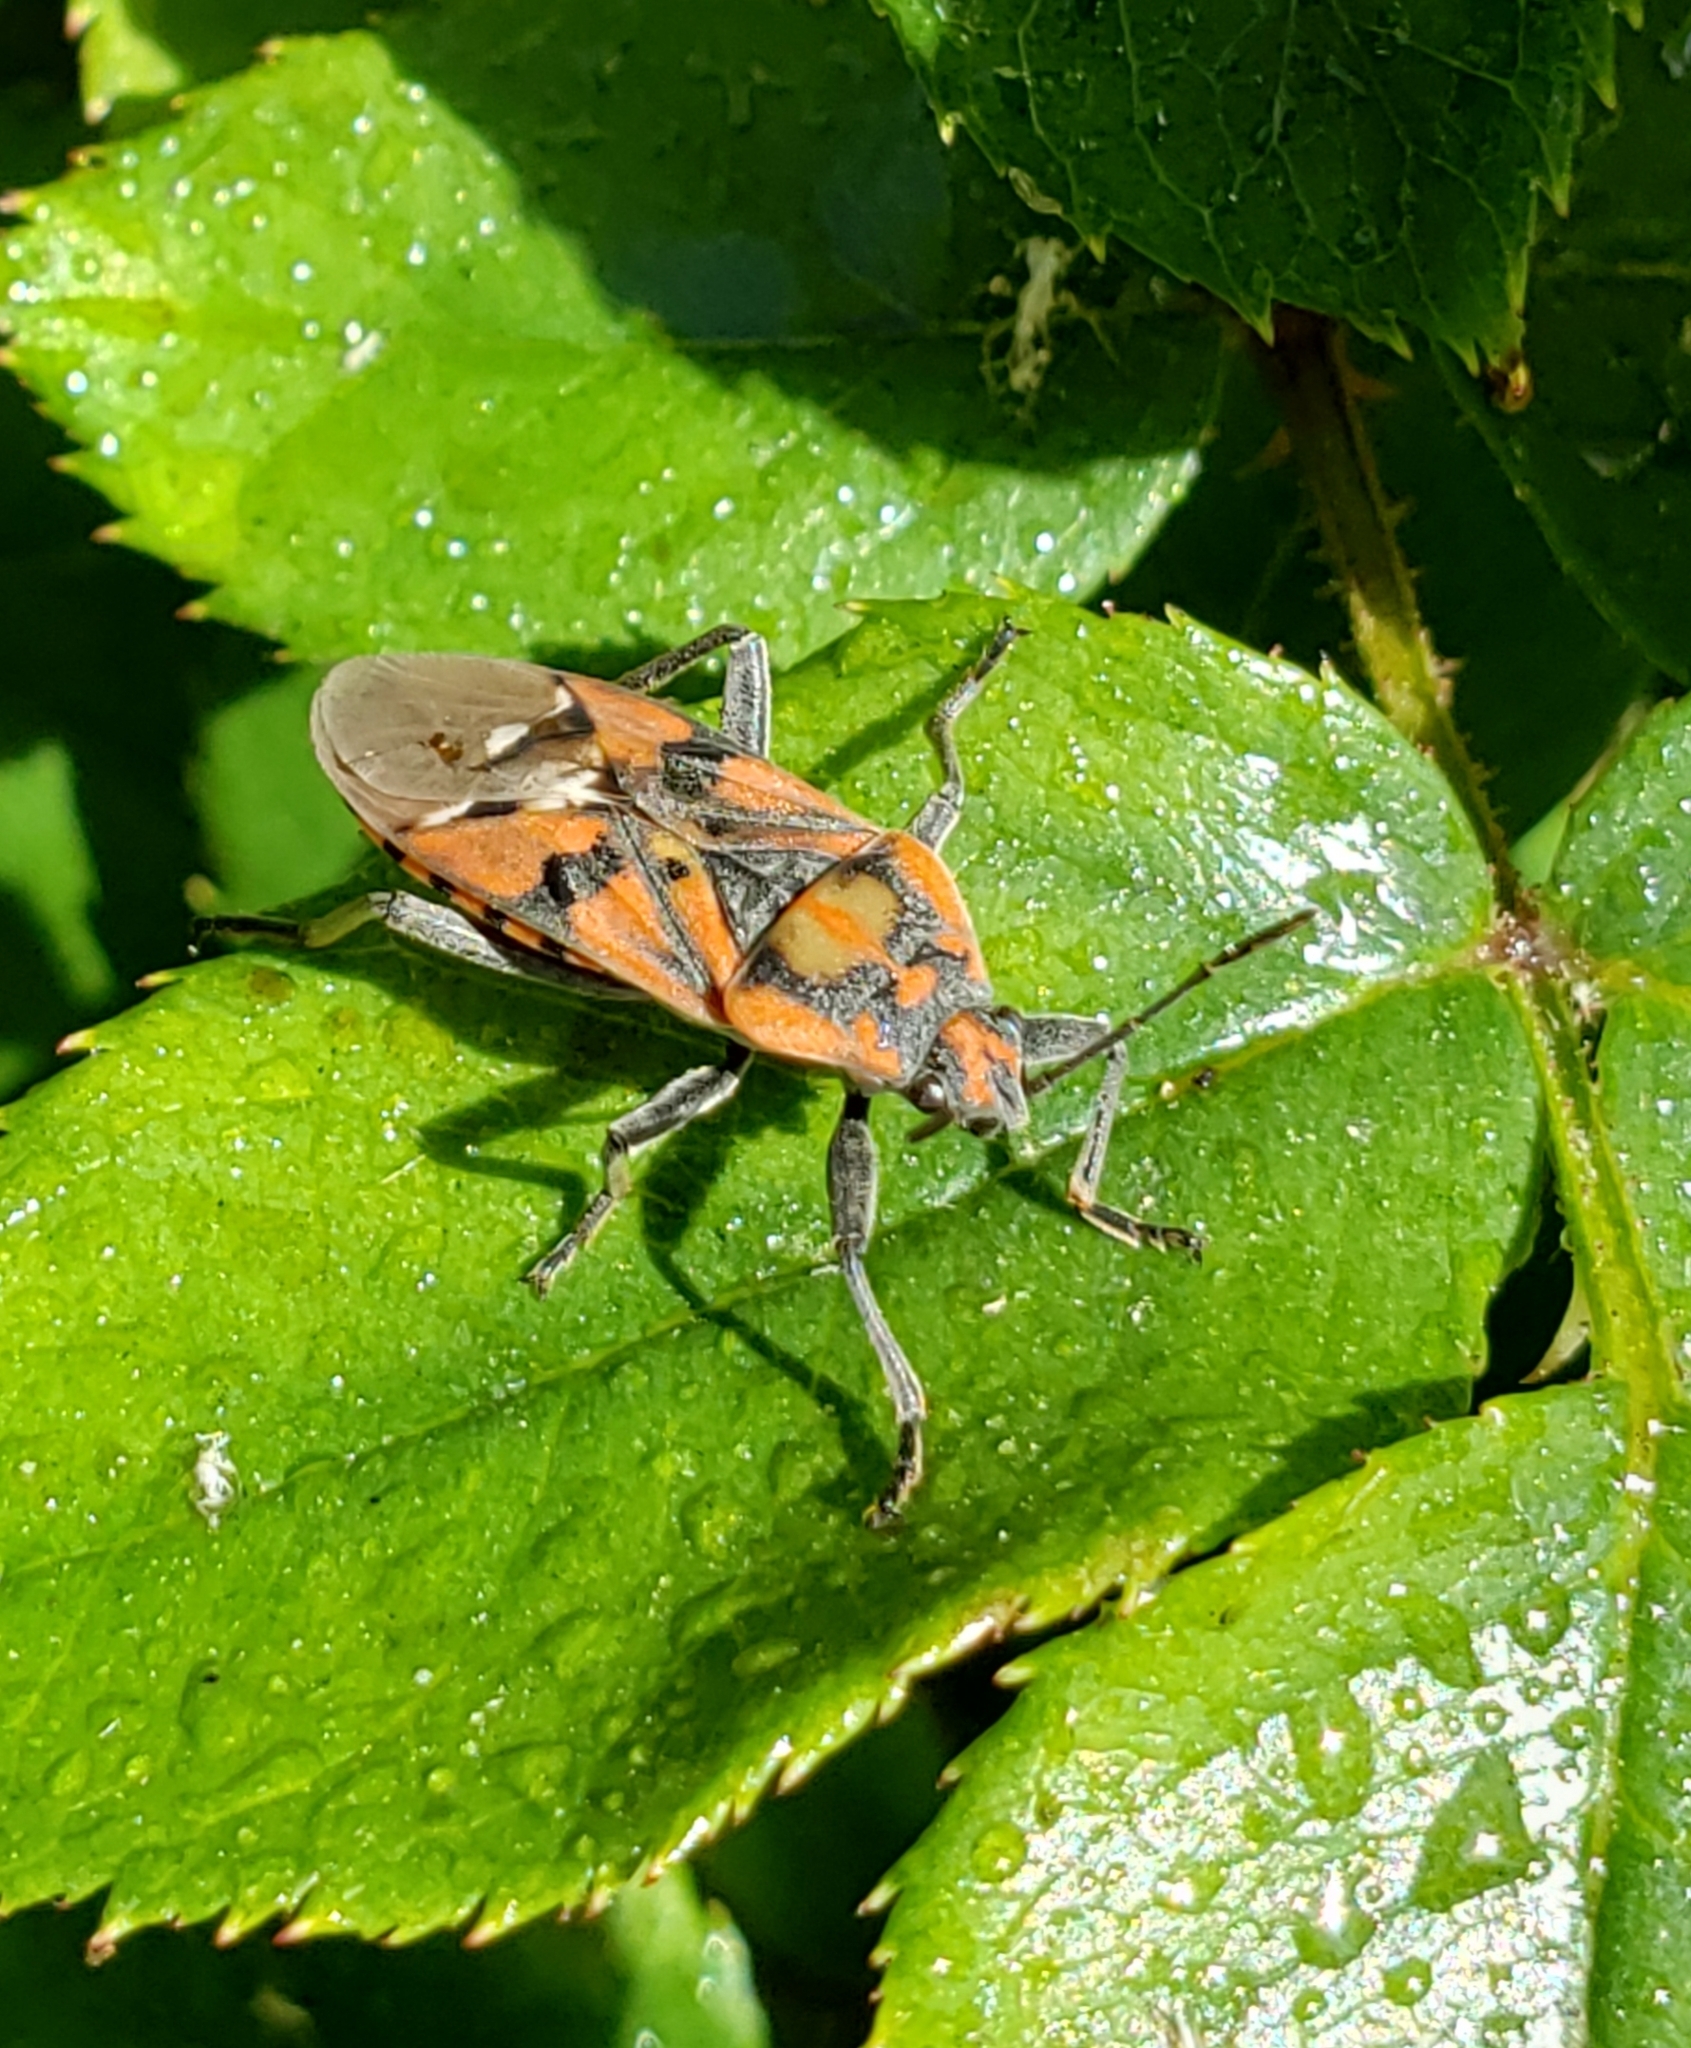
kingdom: Animalia
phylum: Arthropoda
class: Insecta
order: Hemiptera
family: Lygaeidae
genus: Spilostethus
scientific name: Spilostethus pandurus
